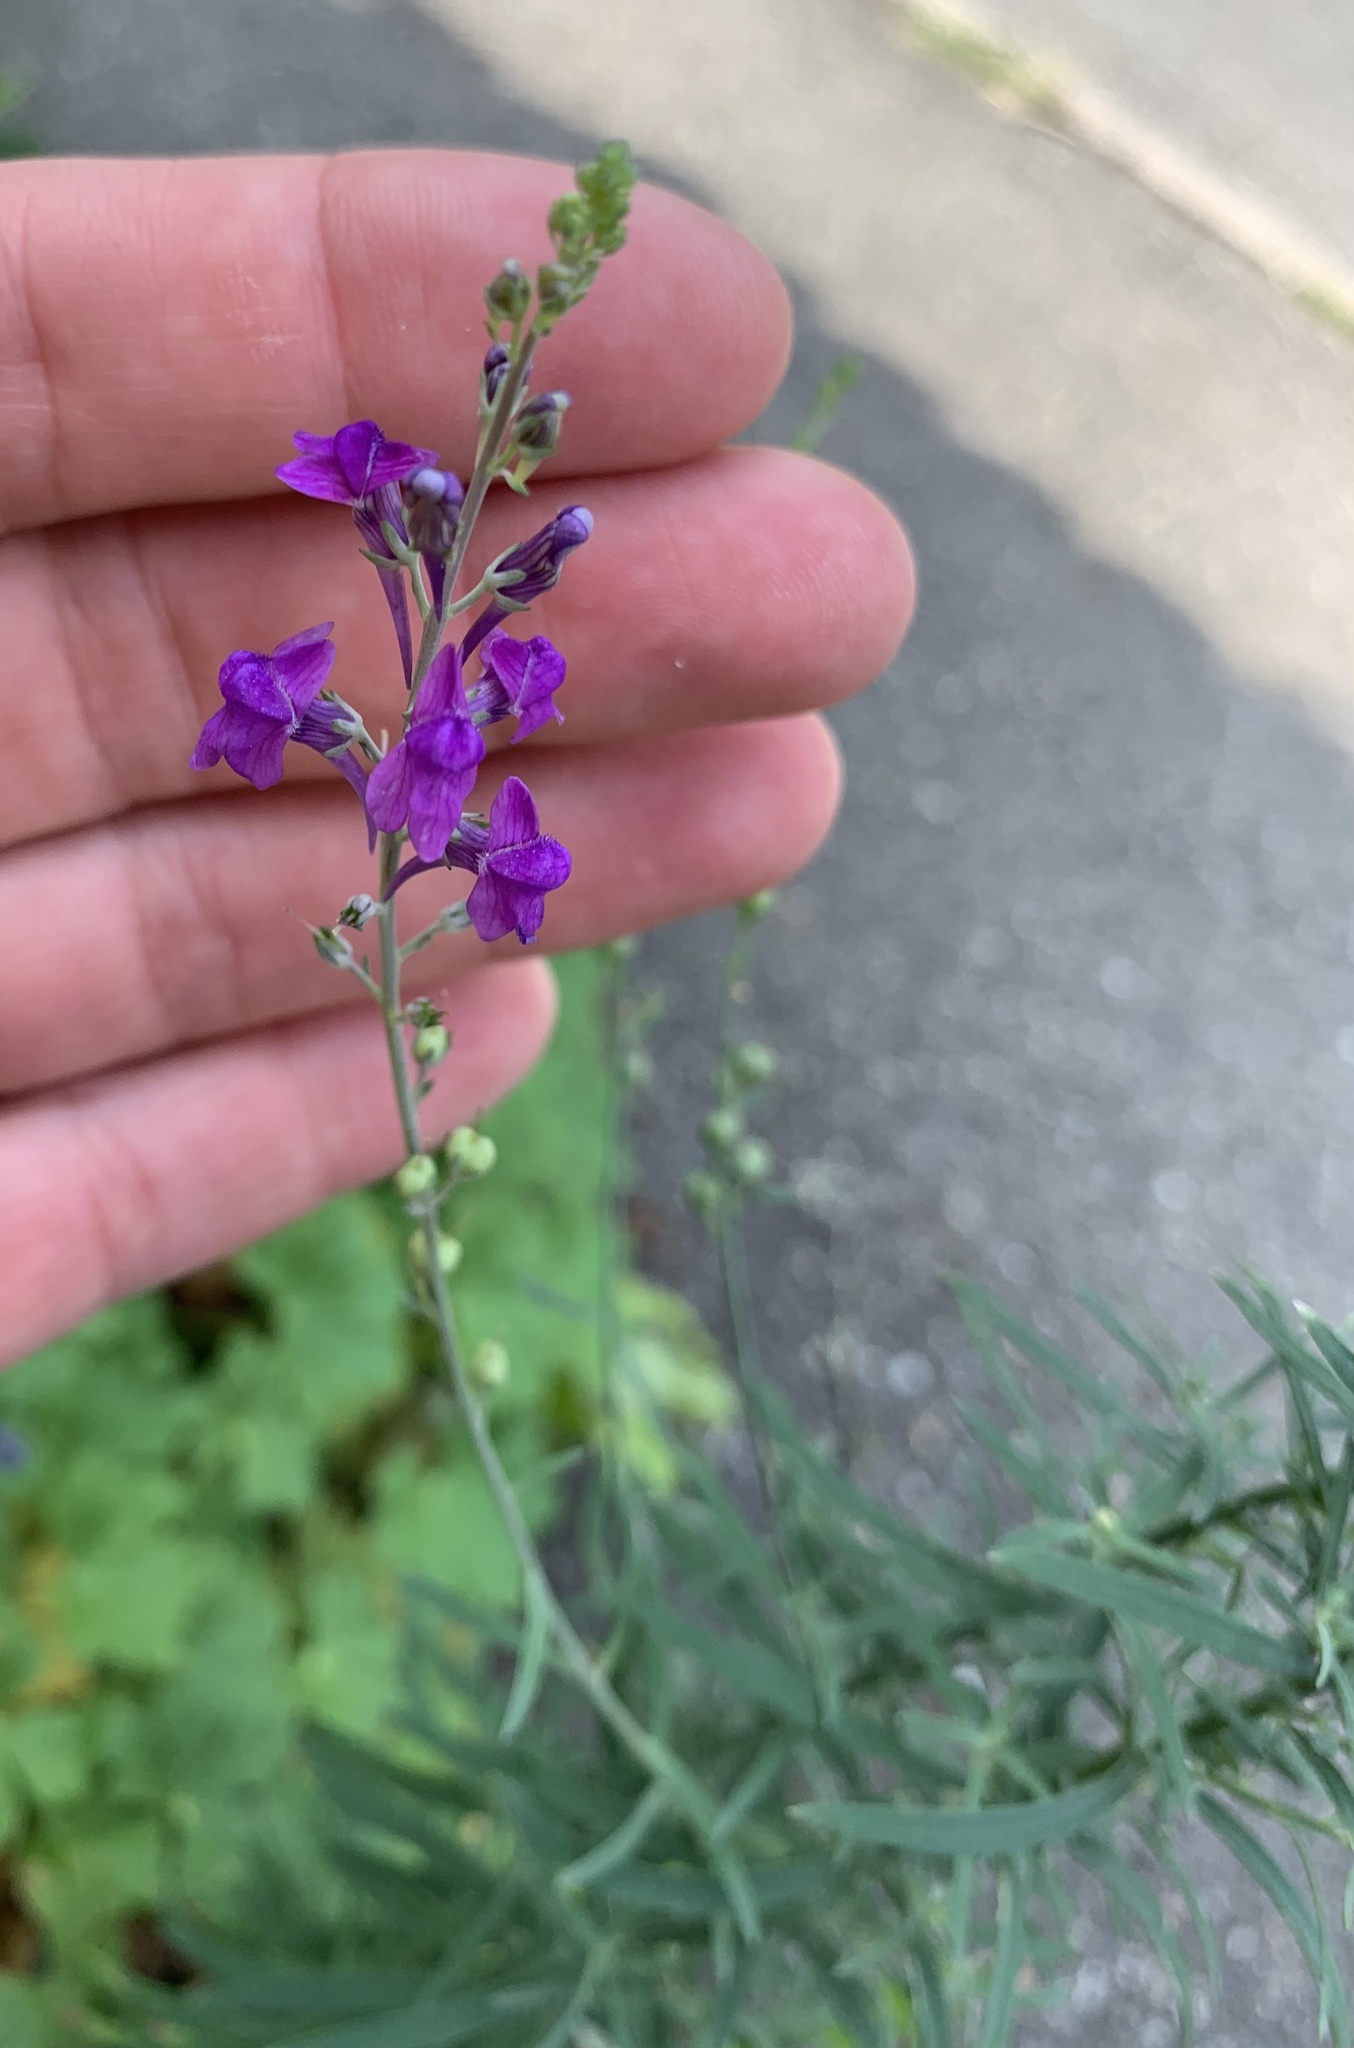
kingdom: Plantae
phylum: Tracheophyta
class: Magnoliopsida
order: Lamiales
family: Plantaginaceae
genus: Linaria
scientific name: Linaria purpurea
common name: Purple toadflax
